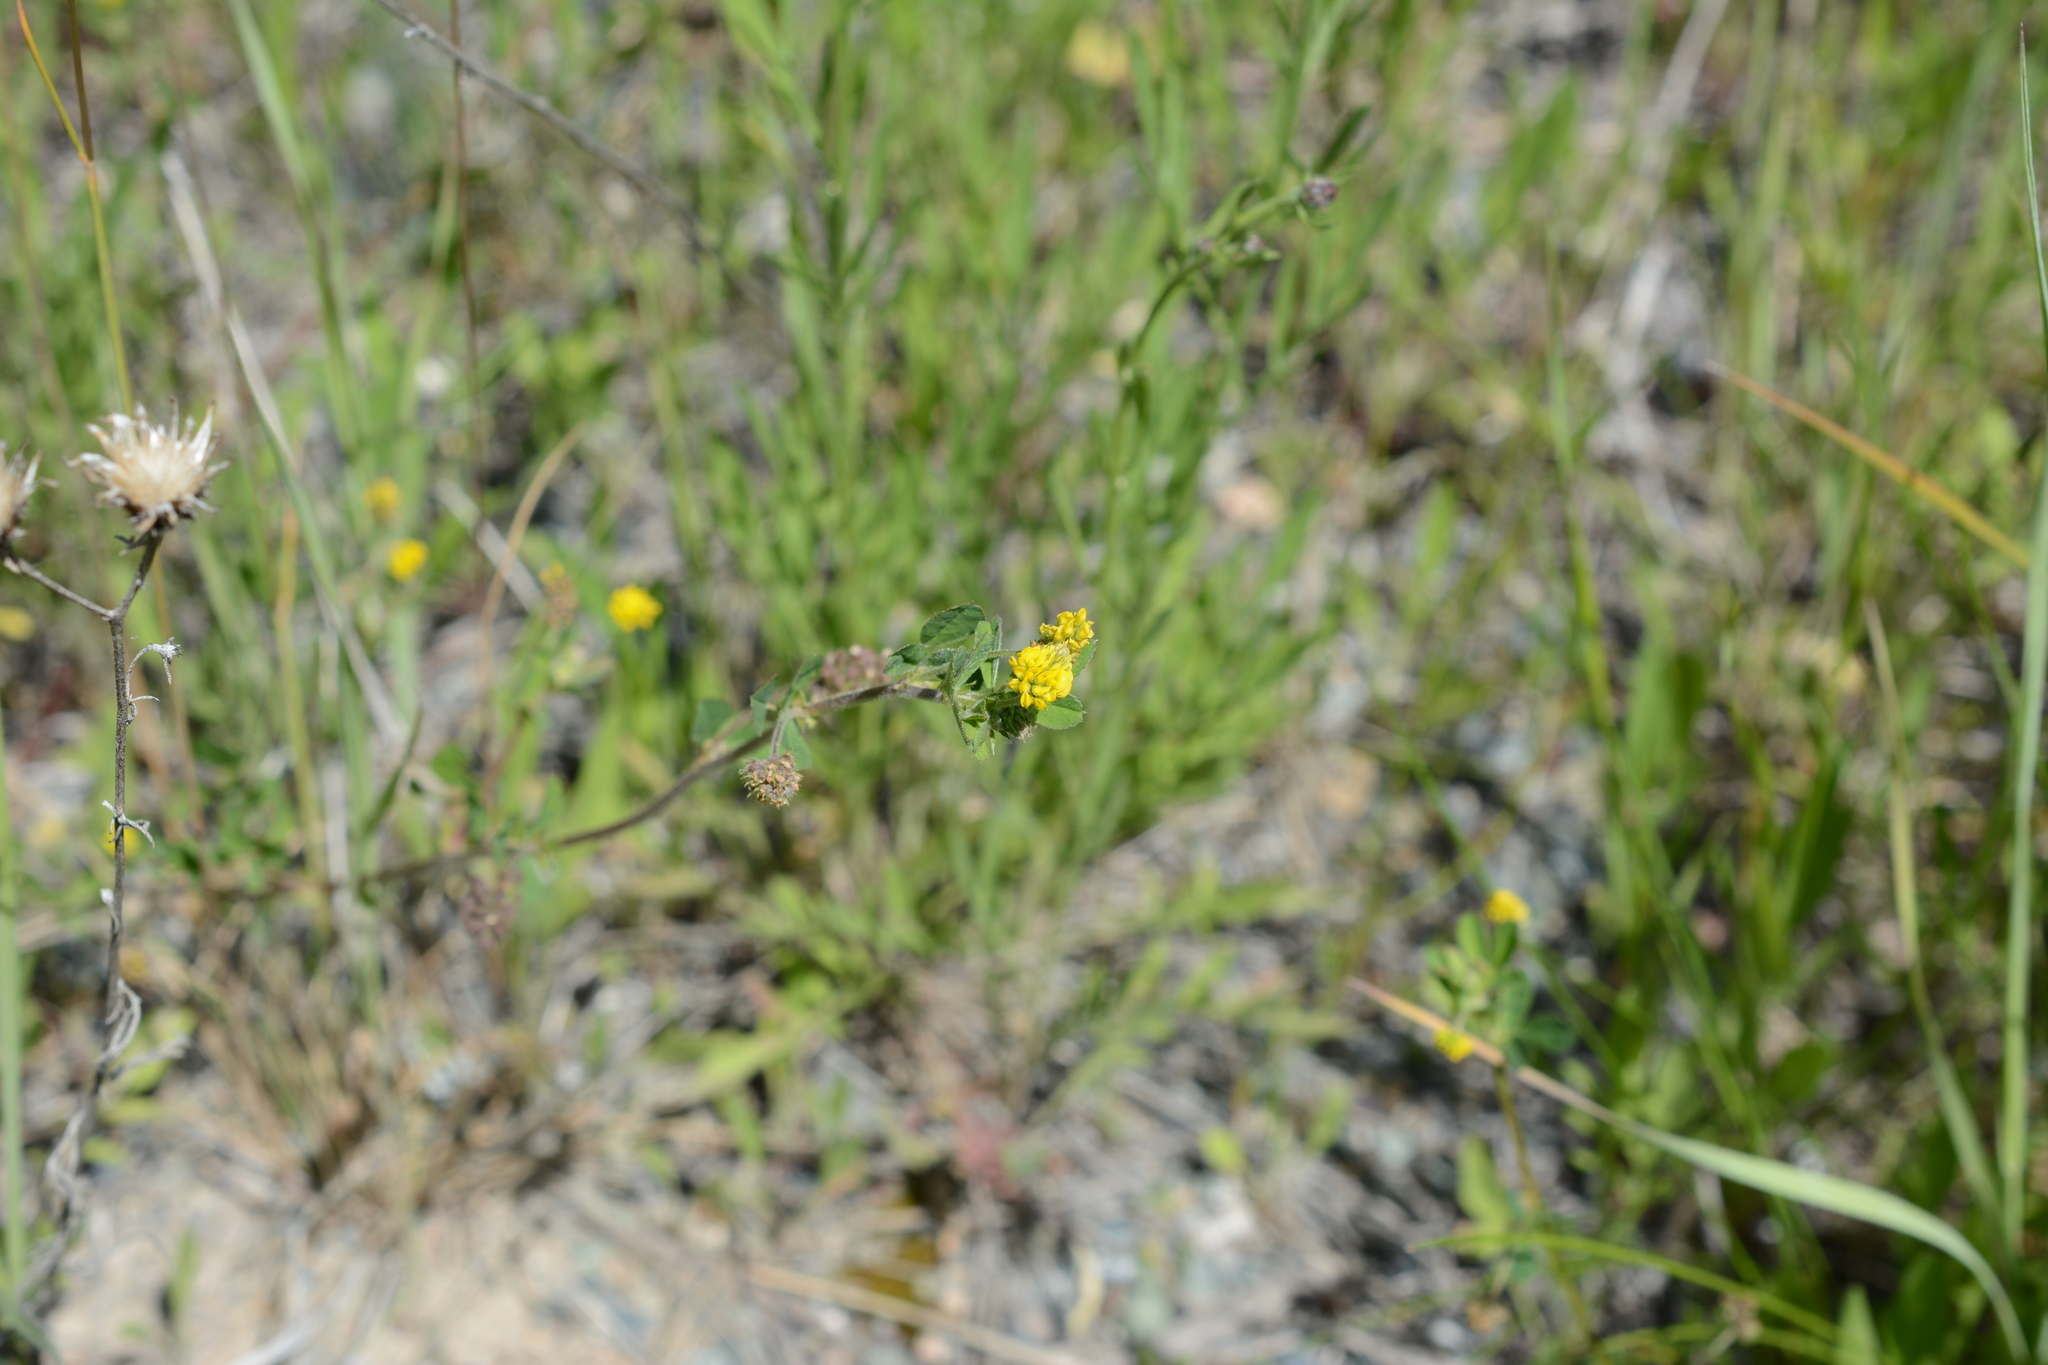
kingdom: Plantae
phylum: Tracheophyta
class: Magnoliopsida
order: Fabales
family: Fabaceae
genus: Medicago
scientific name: Medicago lupulina
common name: Black medick
